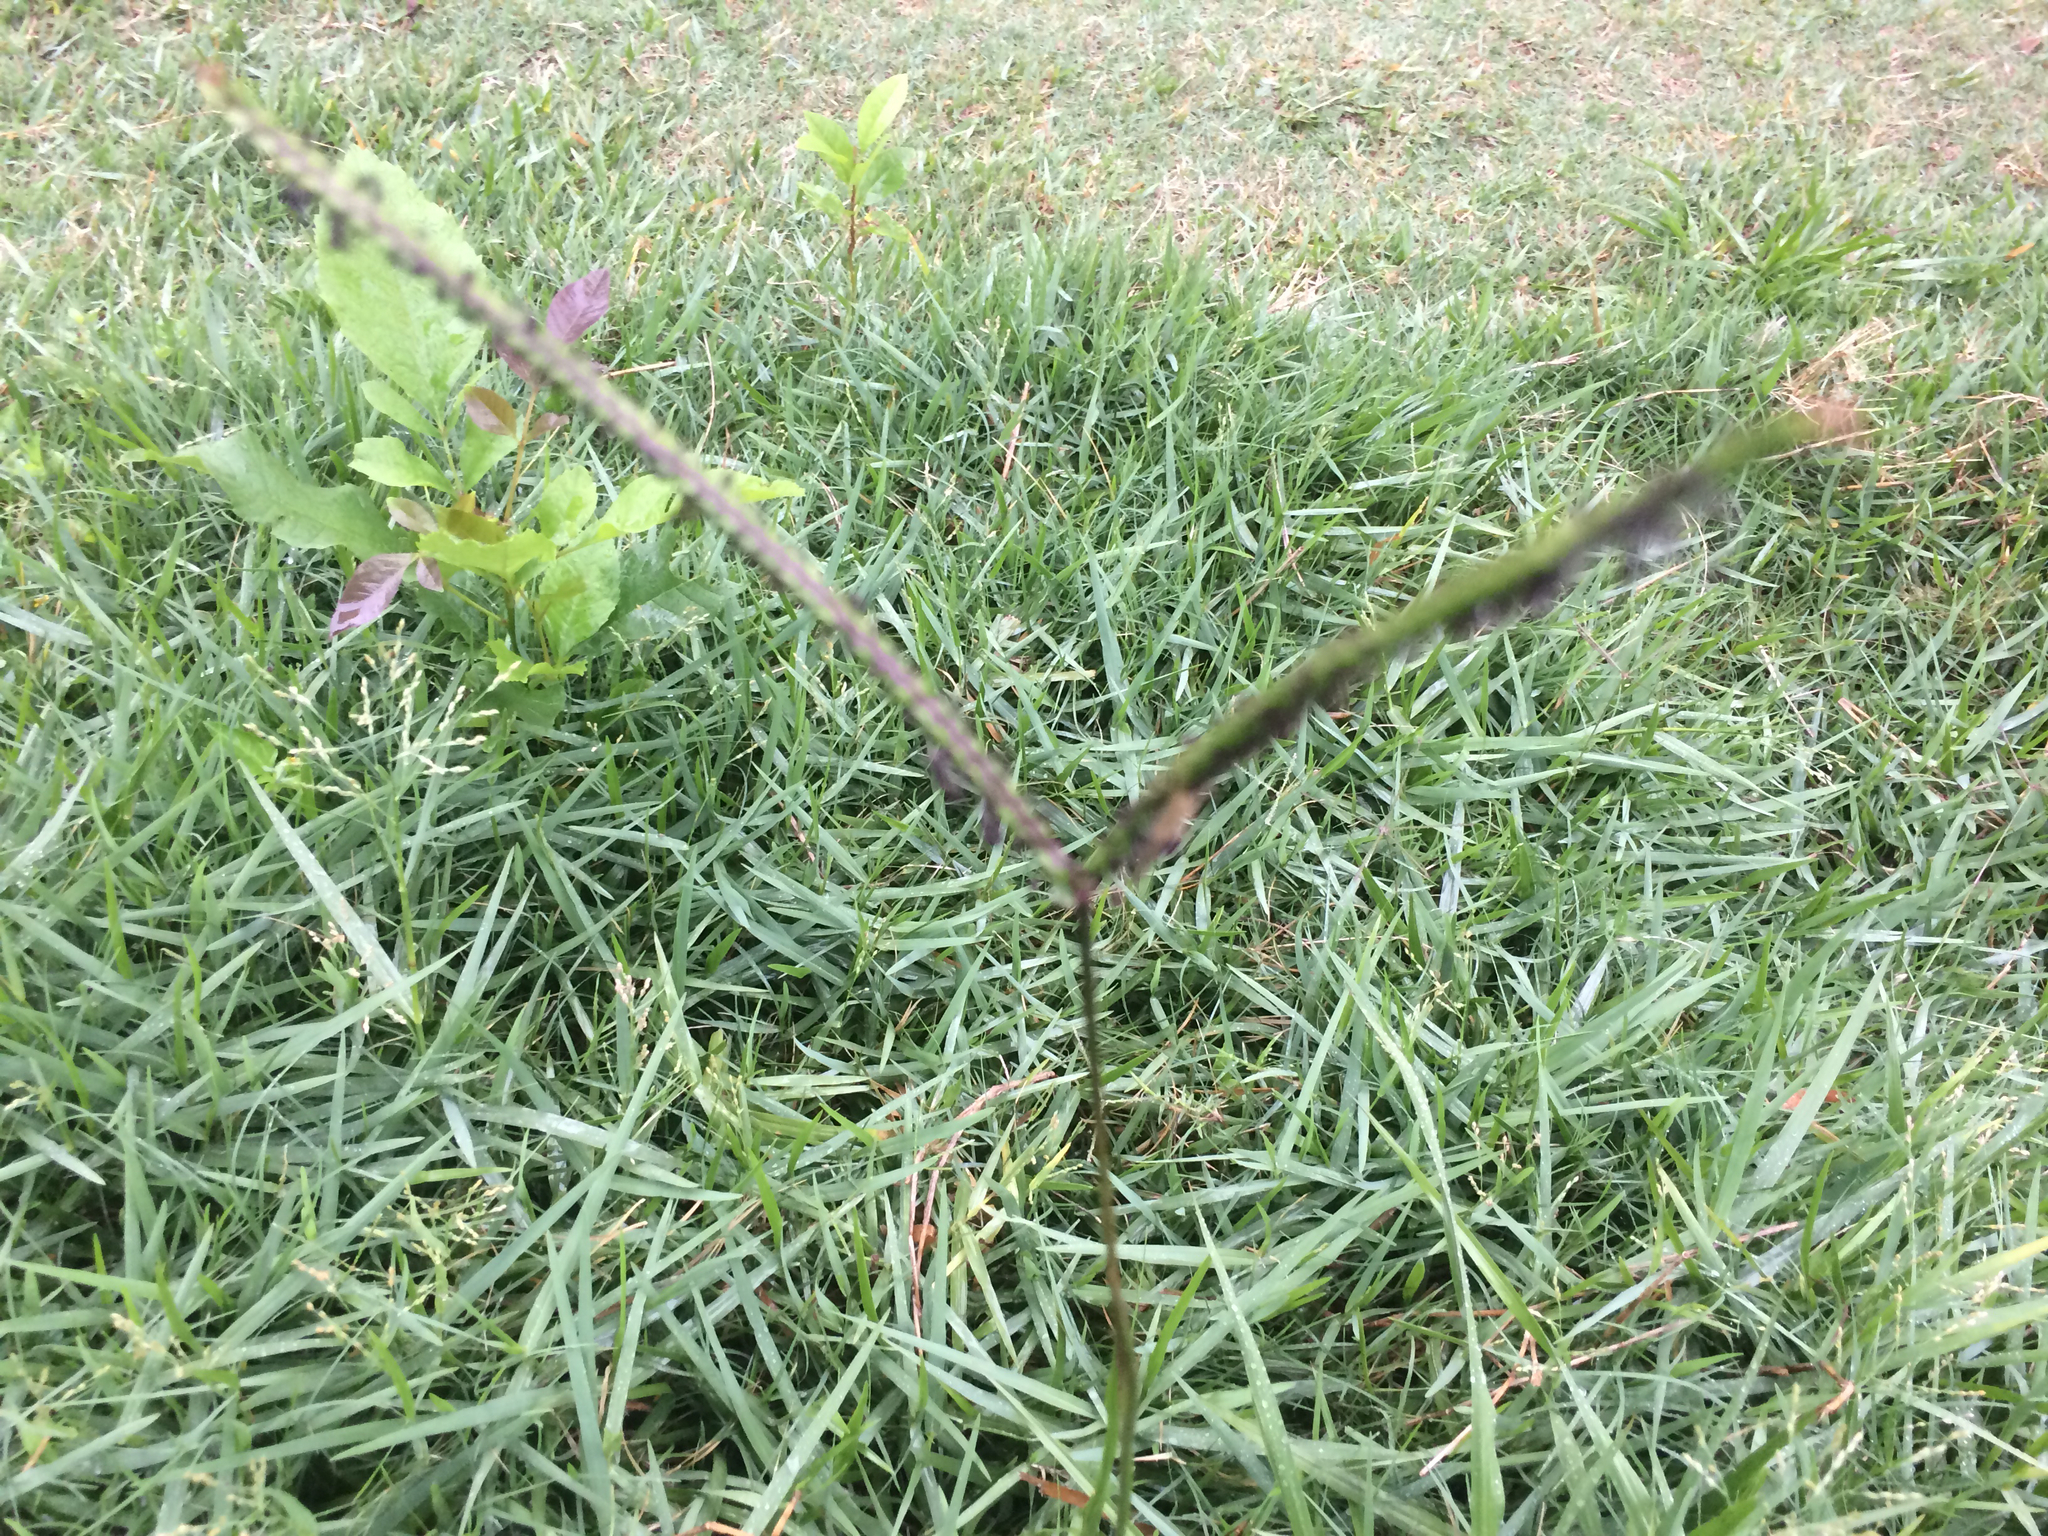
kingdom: Plantae
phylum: Tracheophyta
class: Liliopsida
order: Poales
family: Poaceae
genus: Paspalum
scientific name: Paspalum notatum
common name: Bahiagrass
